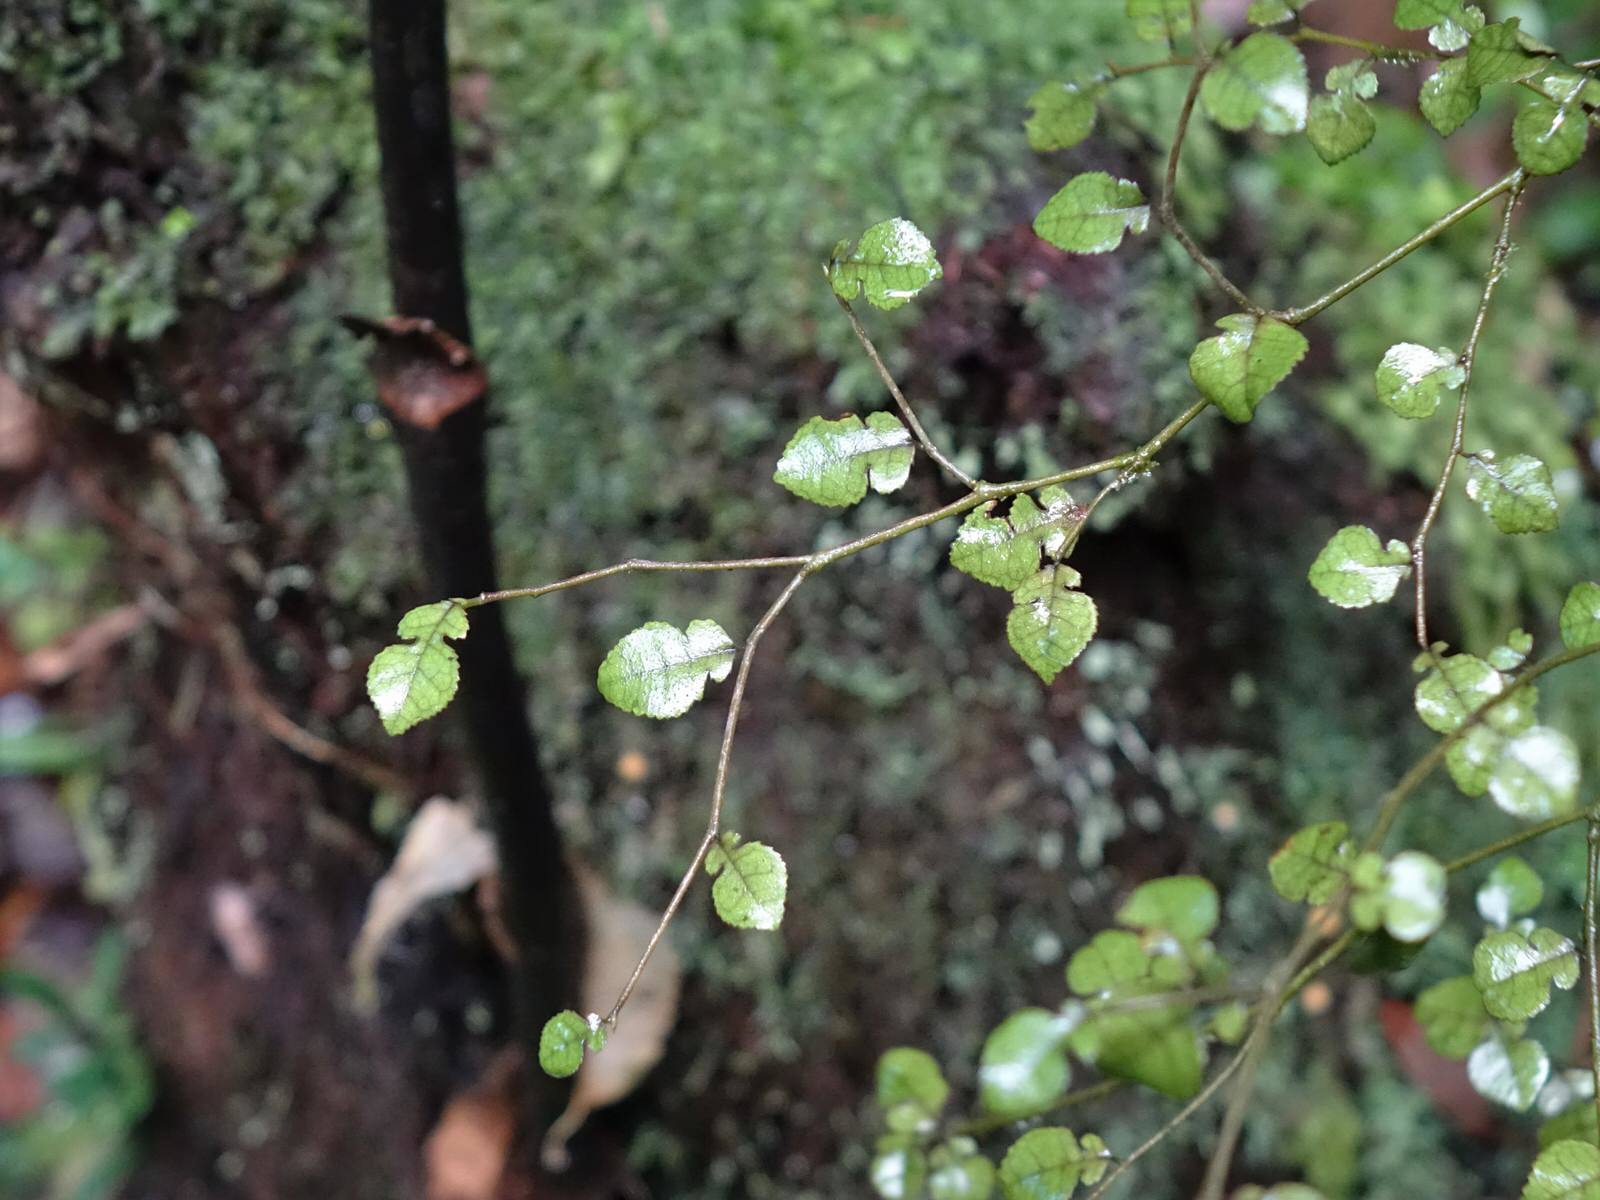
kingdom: Plantae
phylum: Tracheophyta
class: Magnoliopsida
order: Rosales
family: Moraceae
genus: Paratrophis
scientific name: Paratrophis microphylla
